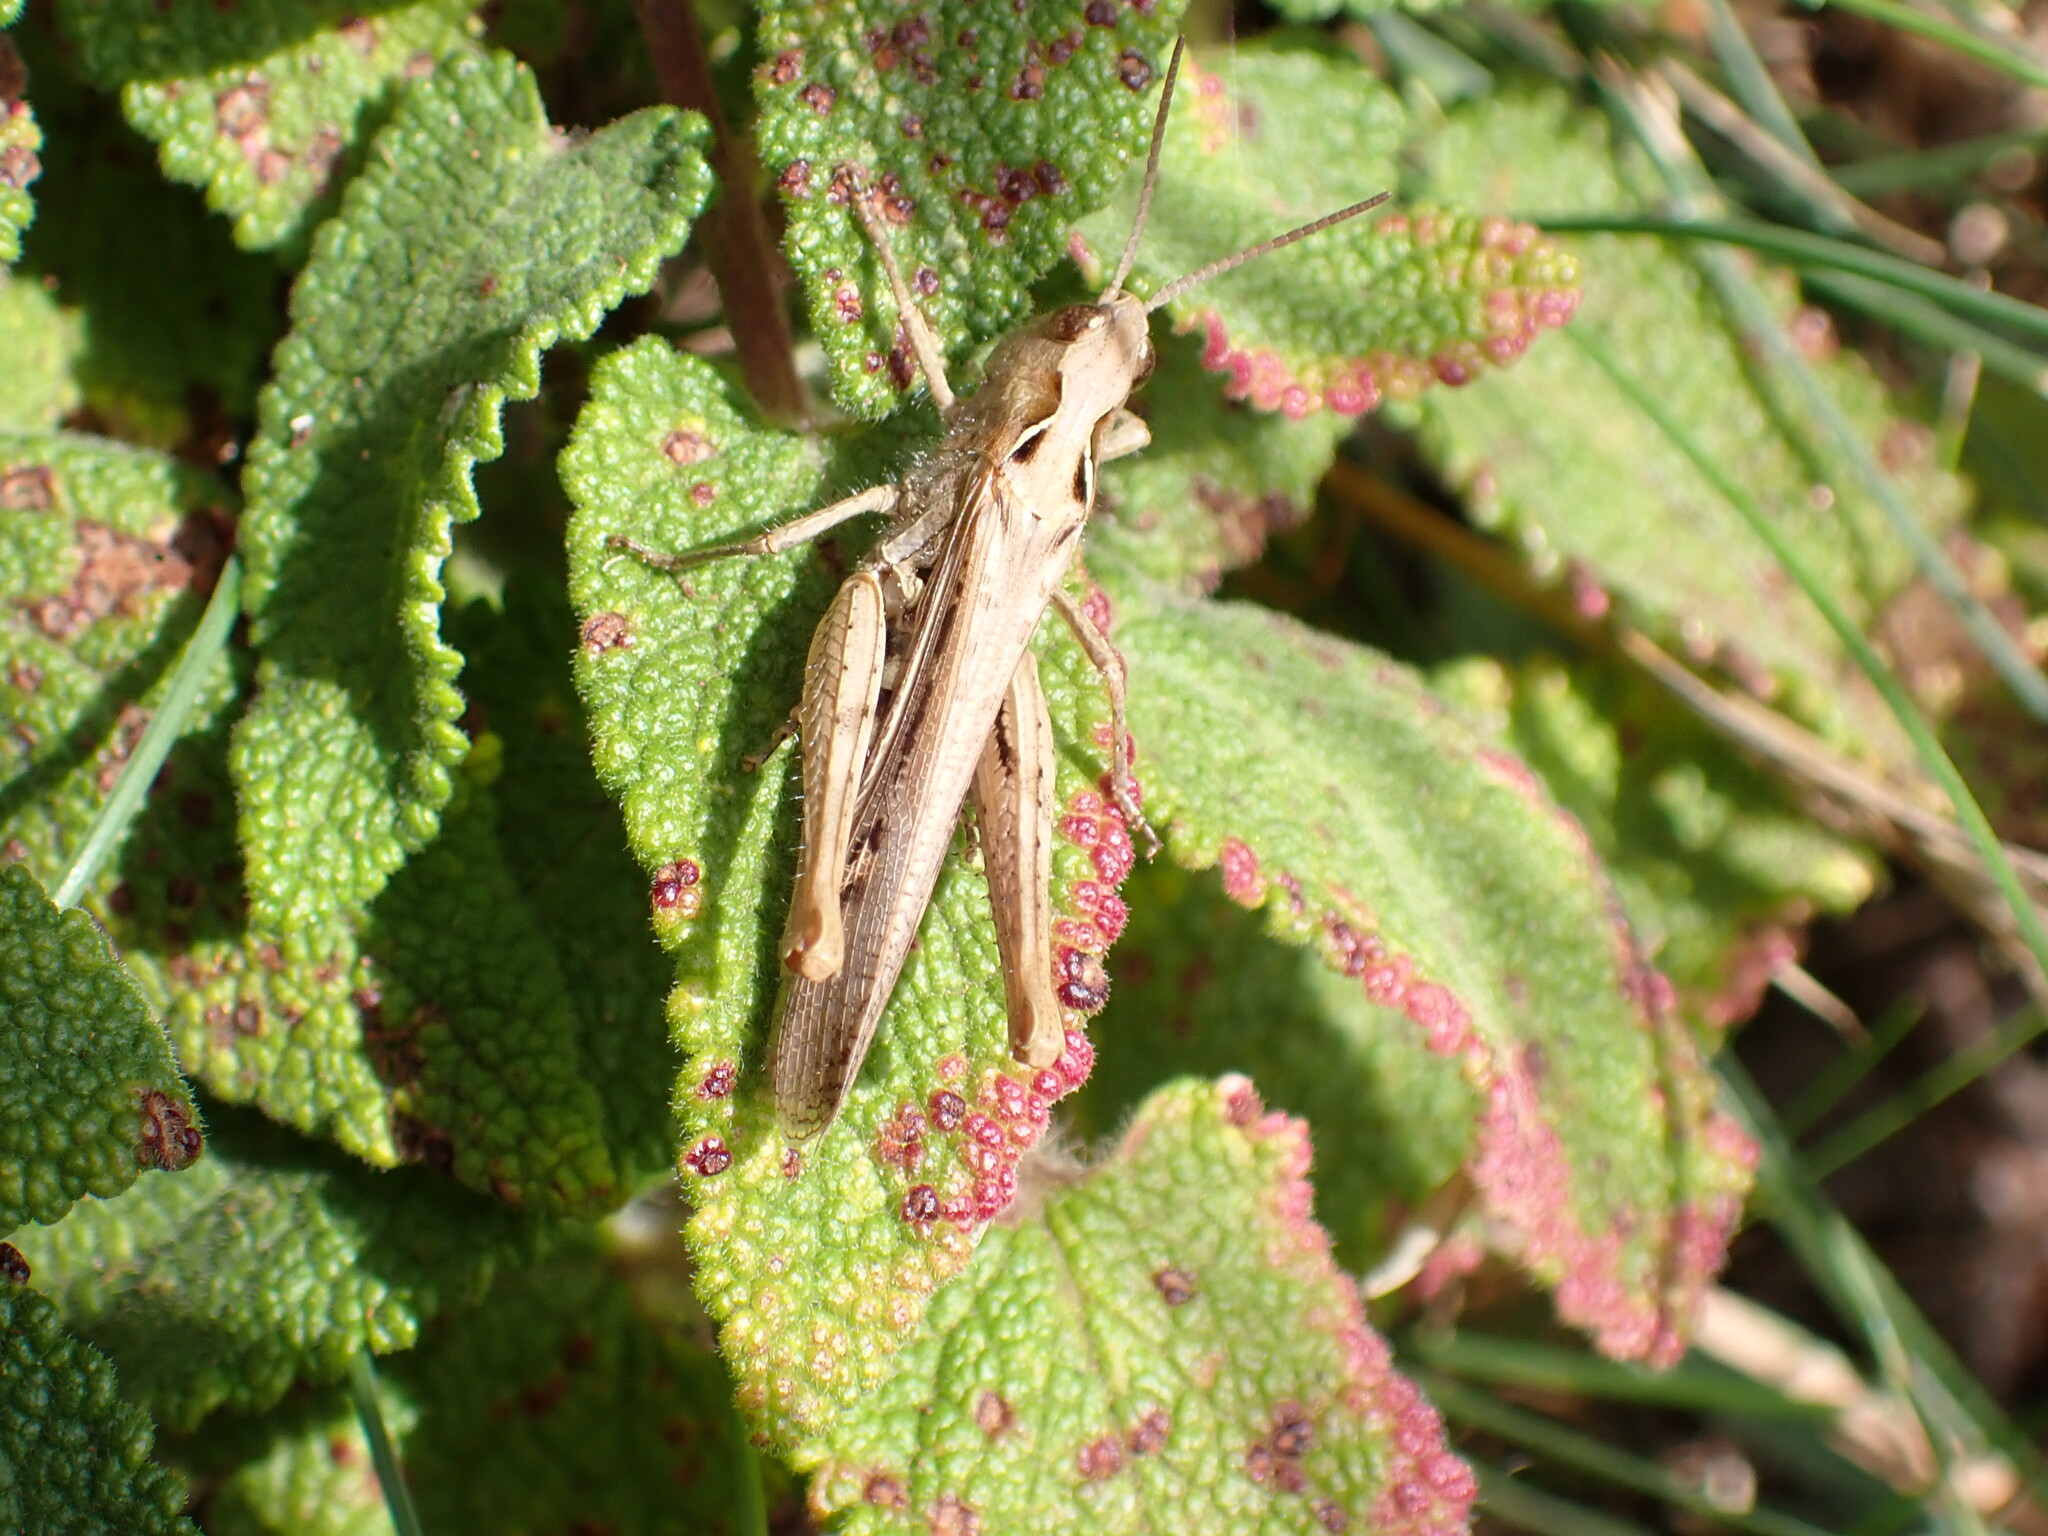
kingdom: Animalia
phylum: Arthropoda
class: Insecta
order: Orthoptera
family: Acrididae
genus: Chorthippus
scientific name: Chorthippus brunneus
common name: Field grasshopper
